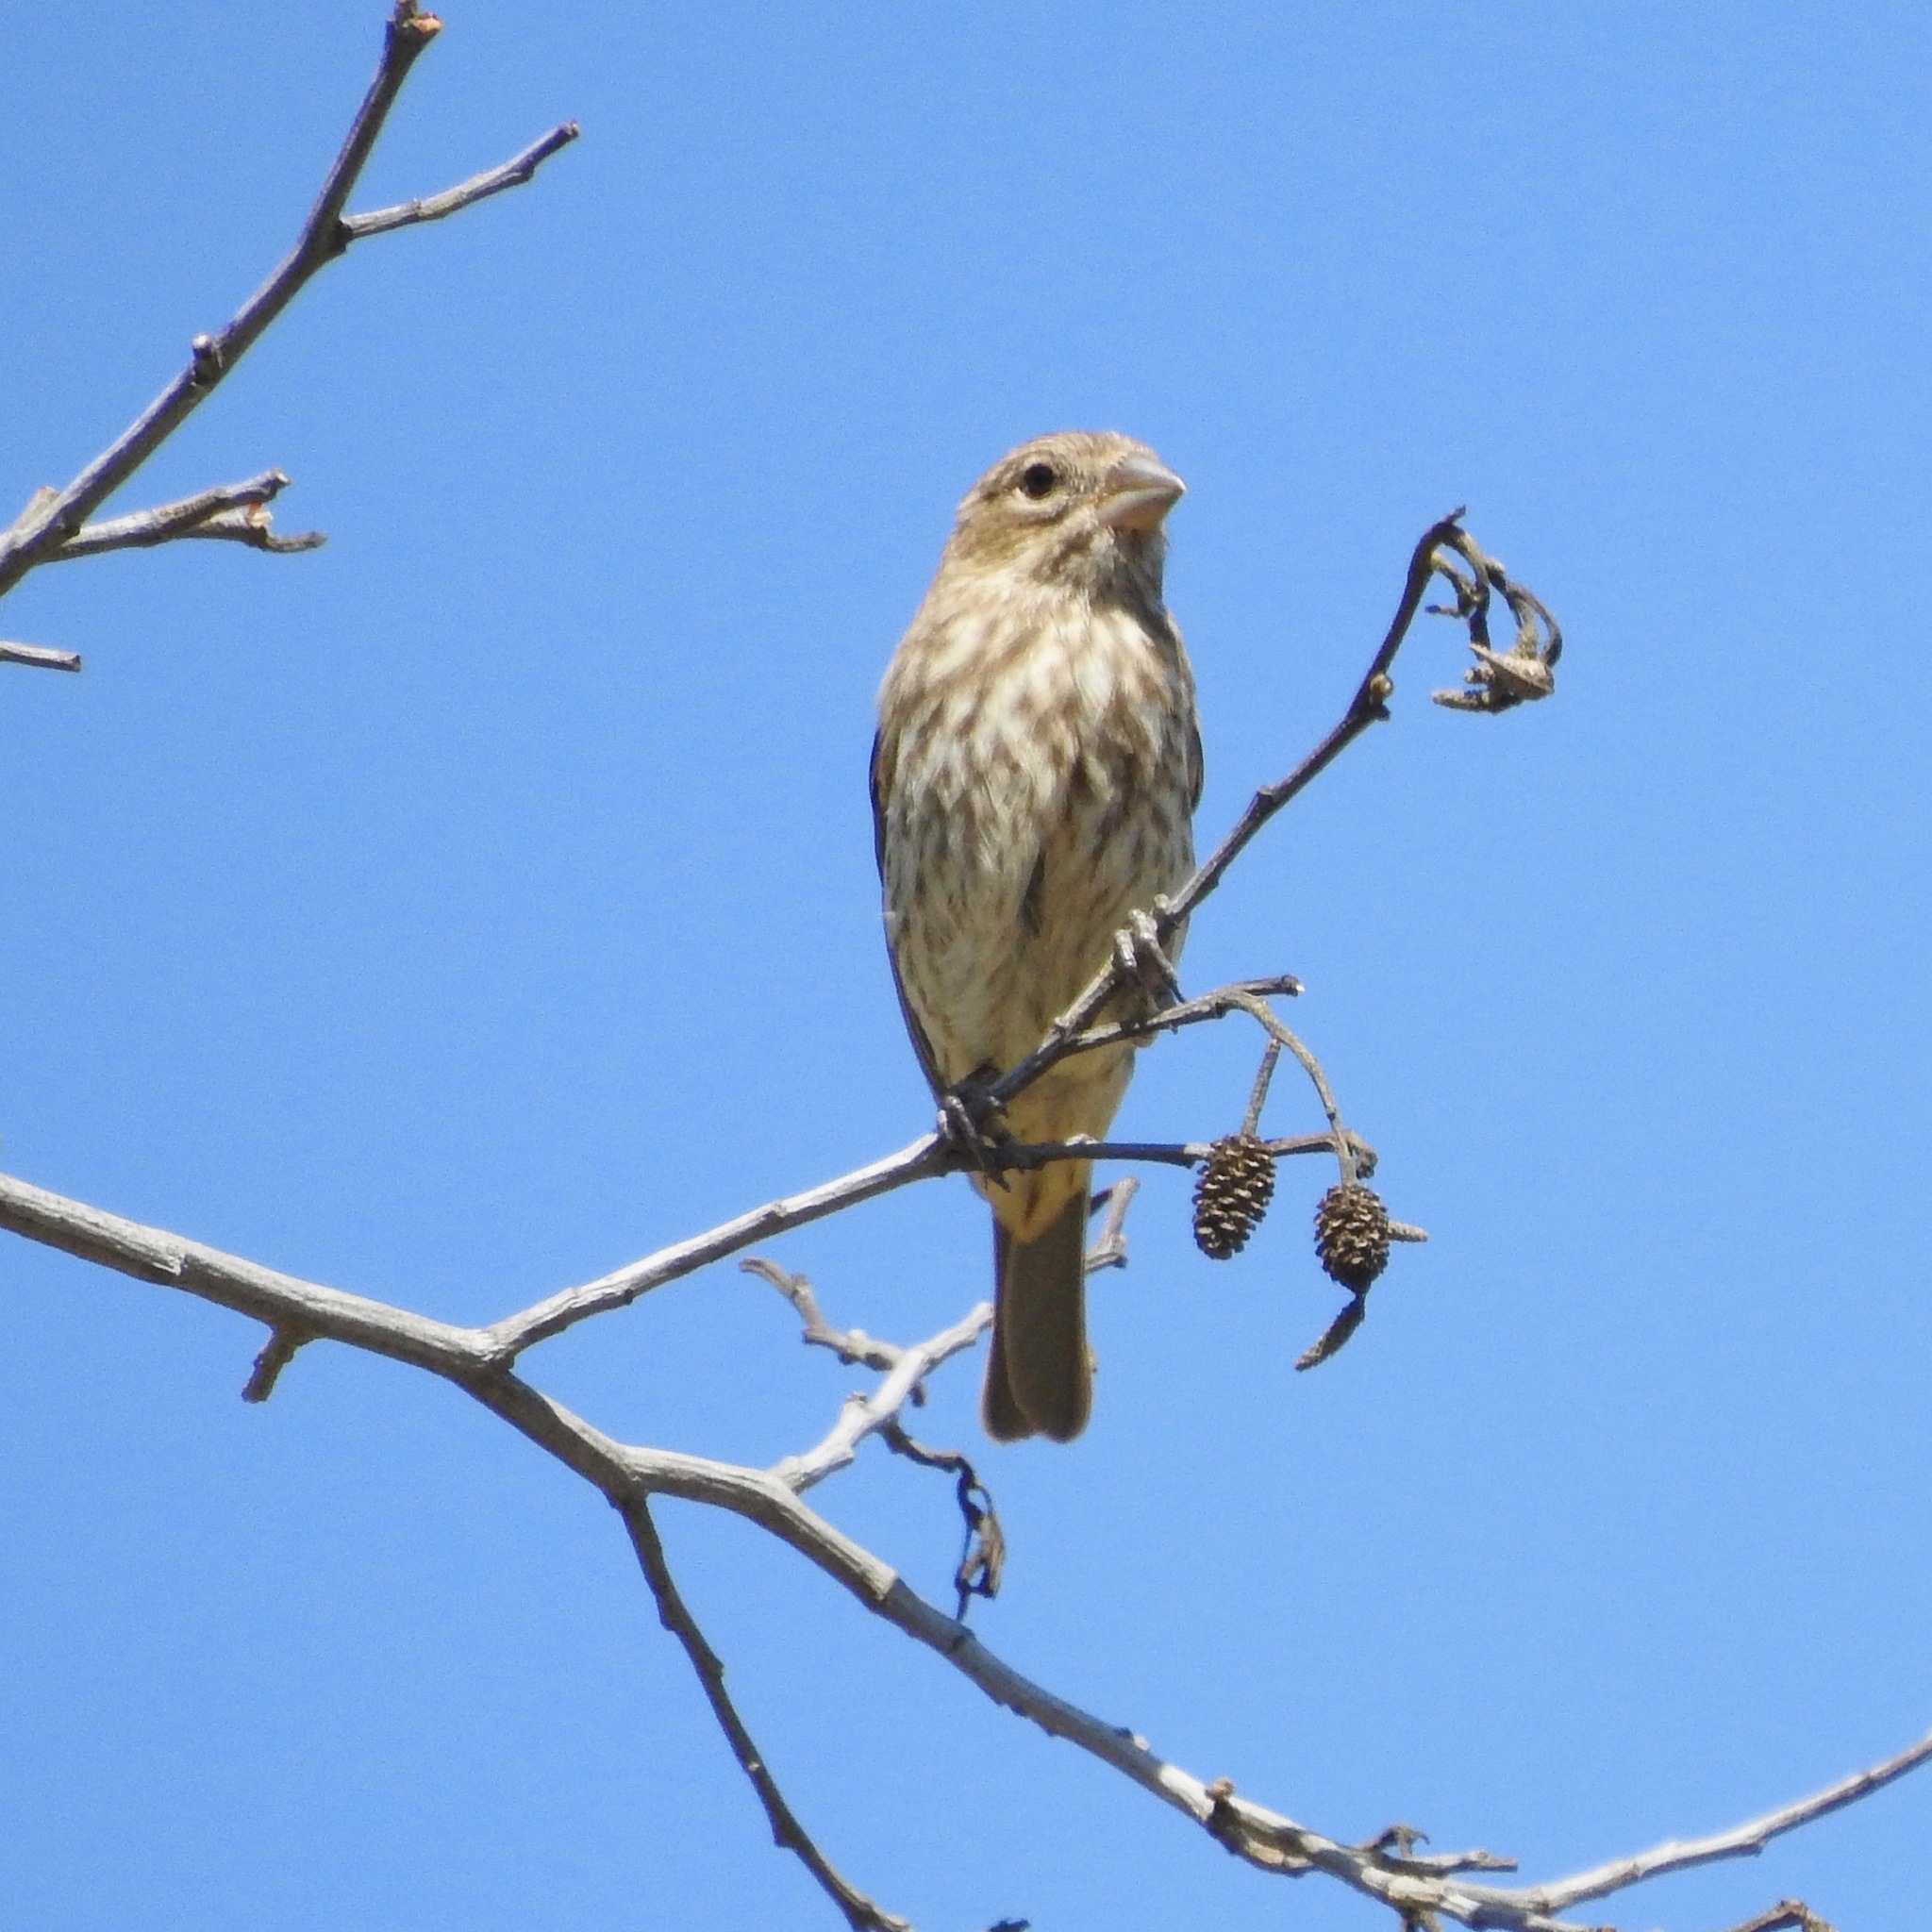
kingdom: Animalia
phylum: Chordata
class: Aves
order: Passeriformes
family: Fringillidae
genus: Haemorhous
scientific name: Haemorhous mexicanus
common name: House finch
